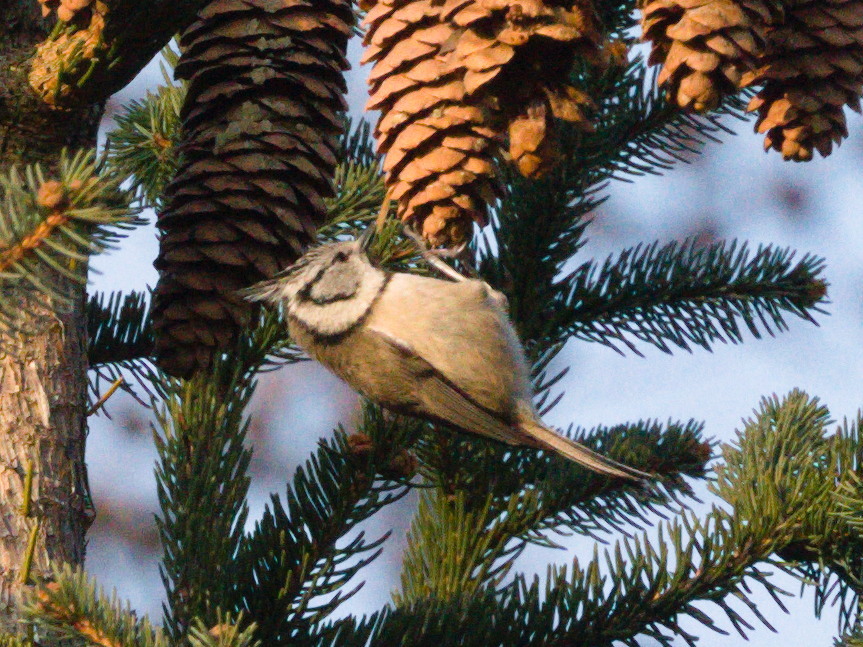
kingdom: Animalia
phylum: Chordata
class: Aves
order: Passeriformes
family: Paridae
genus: Lophophanes
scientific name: Lophophanes cristatus
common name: European crested tit
